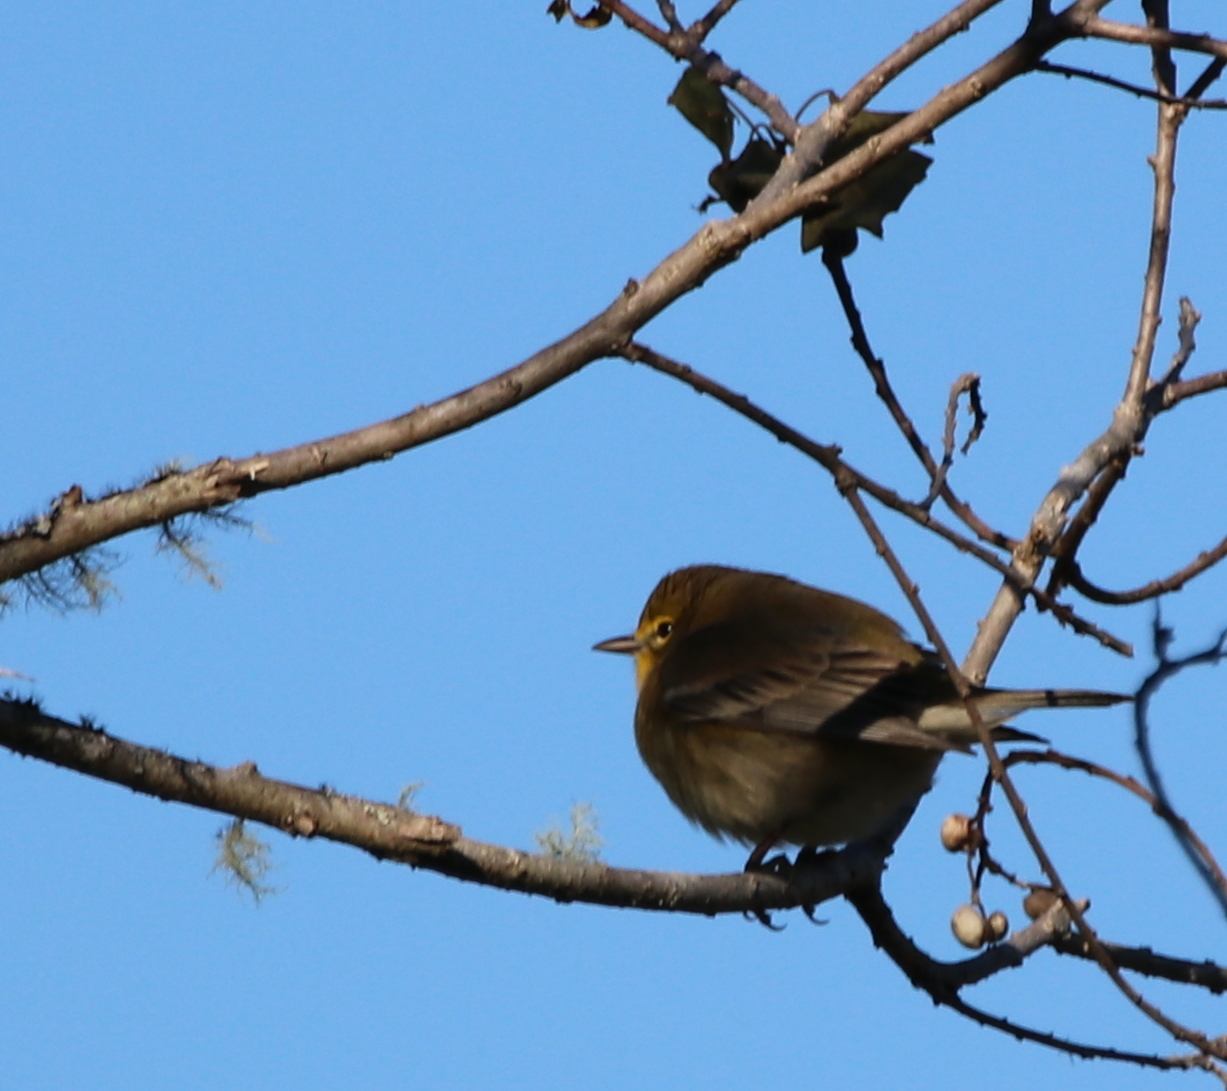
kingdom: Animalia
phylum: Chordata
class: Aves
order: Passeriformes
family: Parulidae
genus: Setophaga
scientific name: Setophaga pinus
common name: Pine warbler
